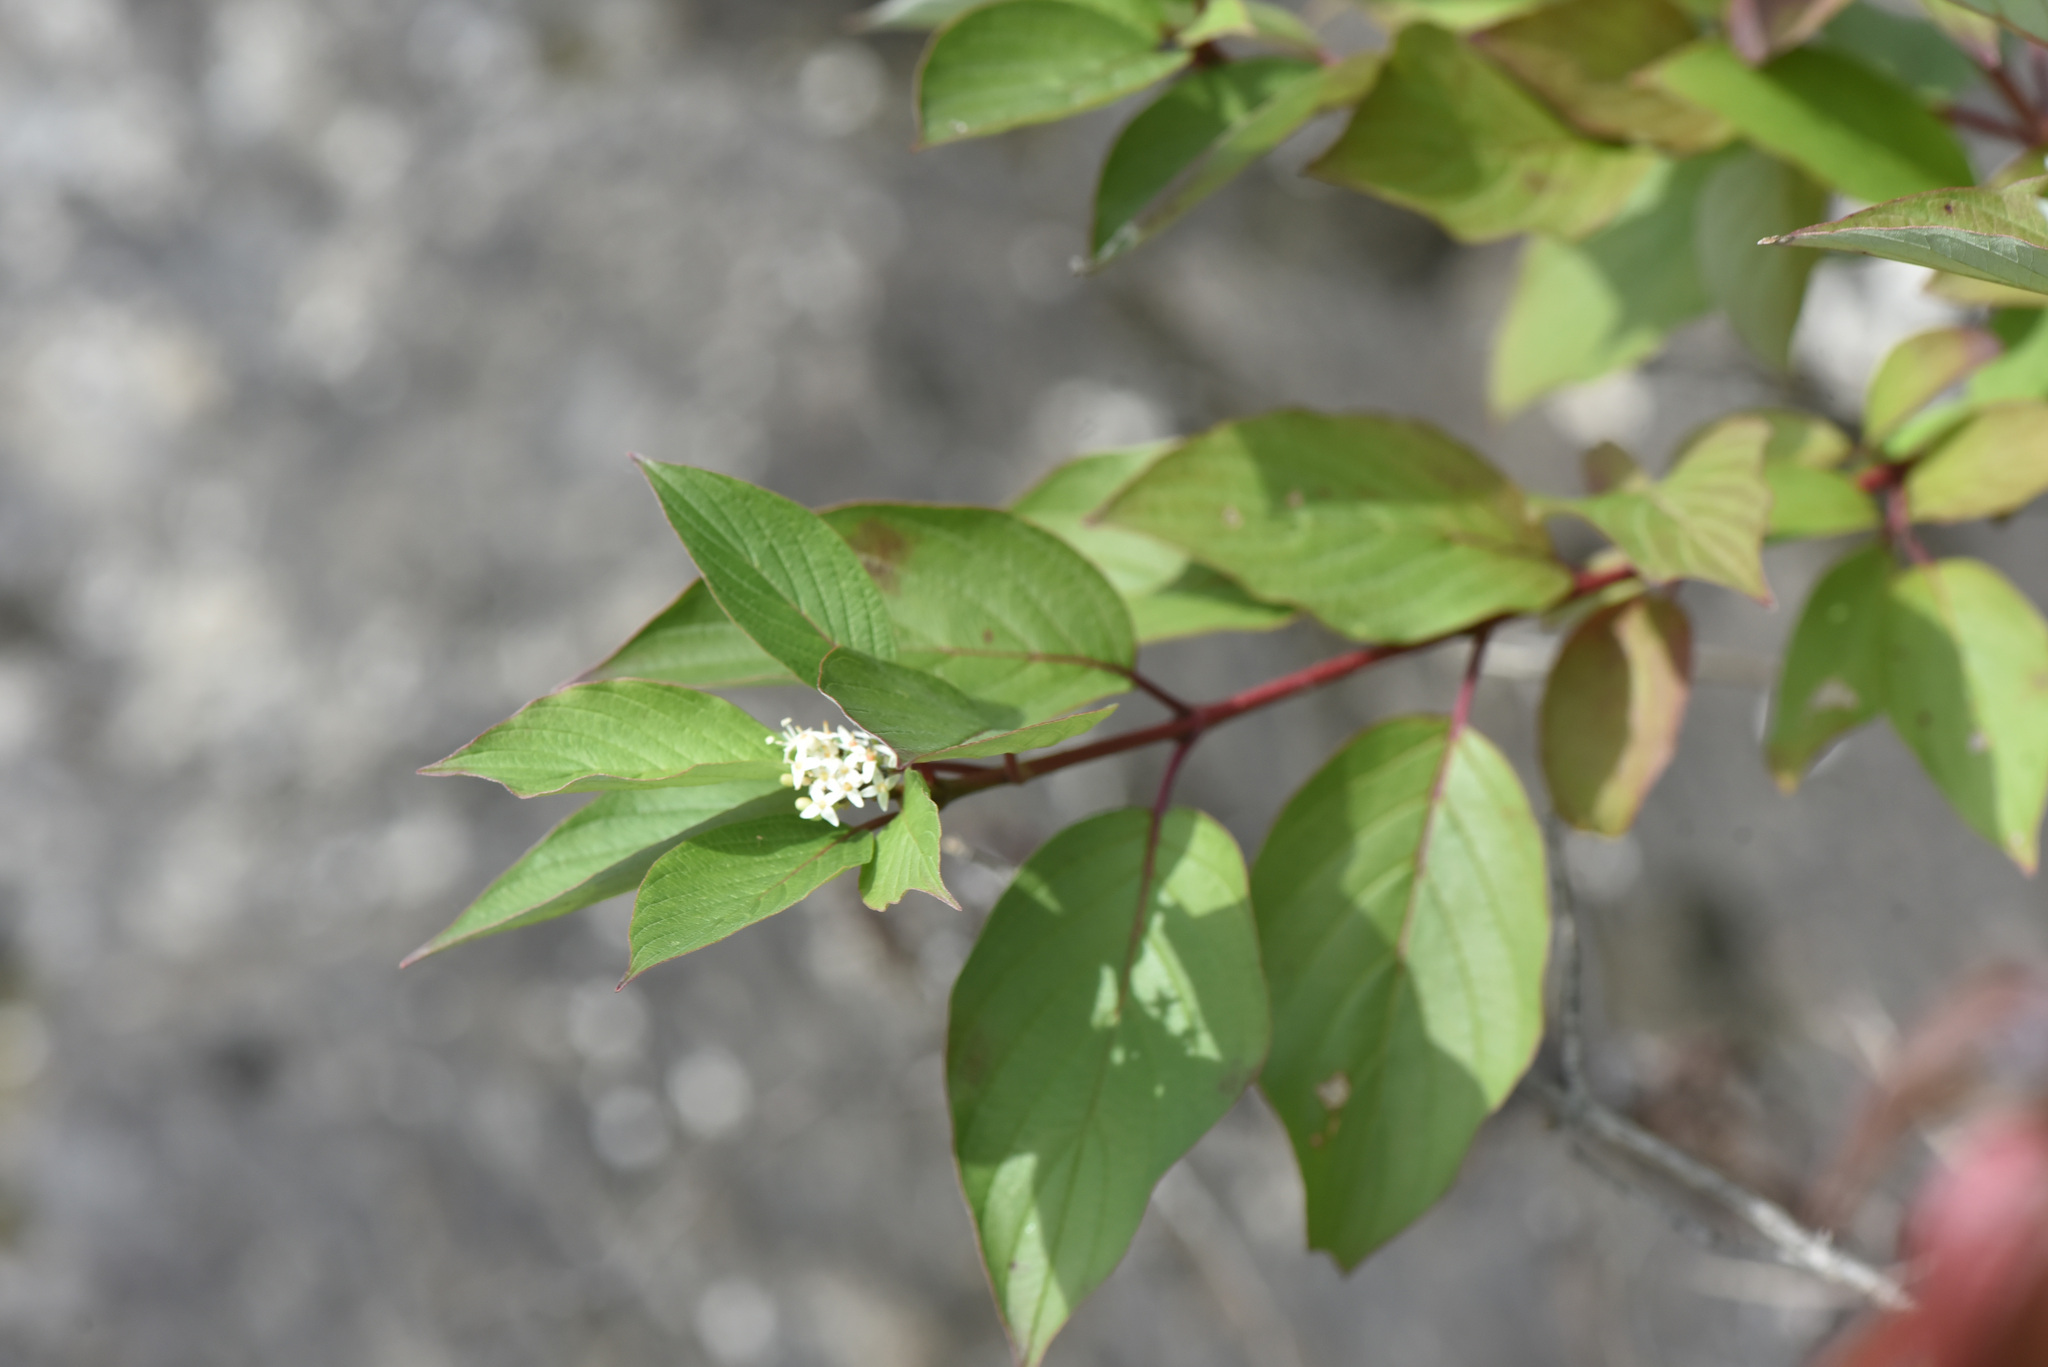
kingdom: Plantae
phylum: Tracheophyta
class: Magnoliopsida
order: Cornales
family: Cornaceae
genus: Cornus
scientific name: Cornus sericea
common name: Red-osier dogwood
